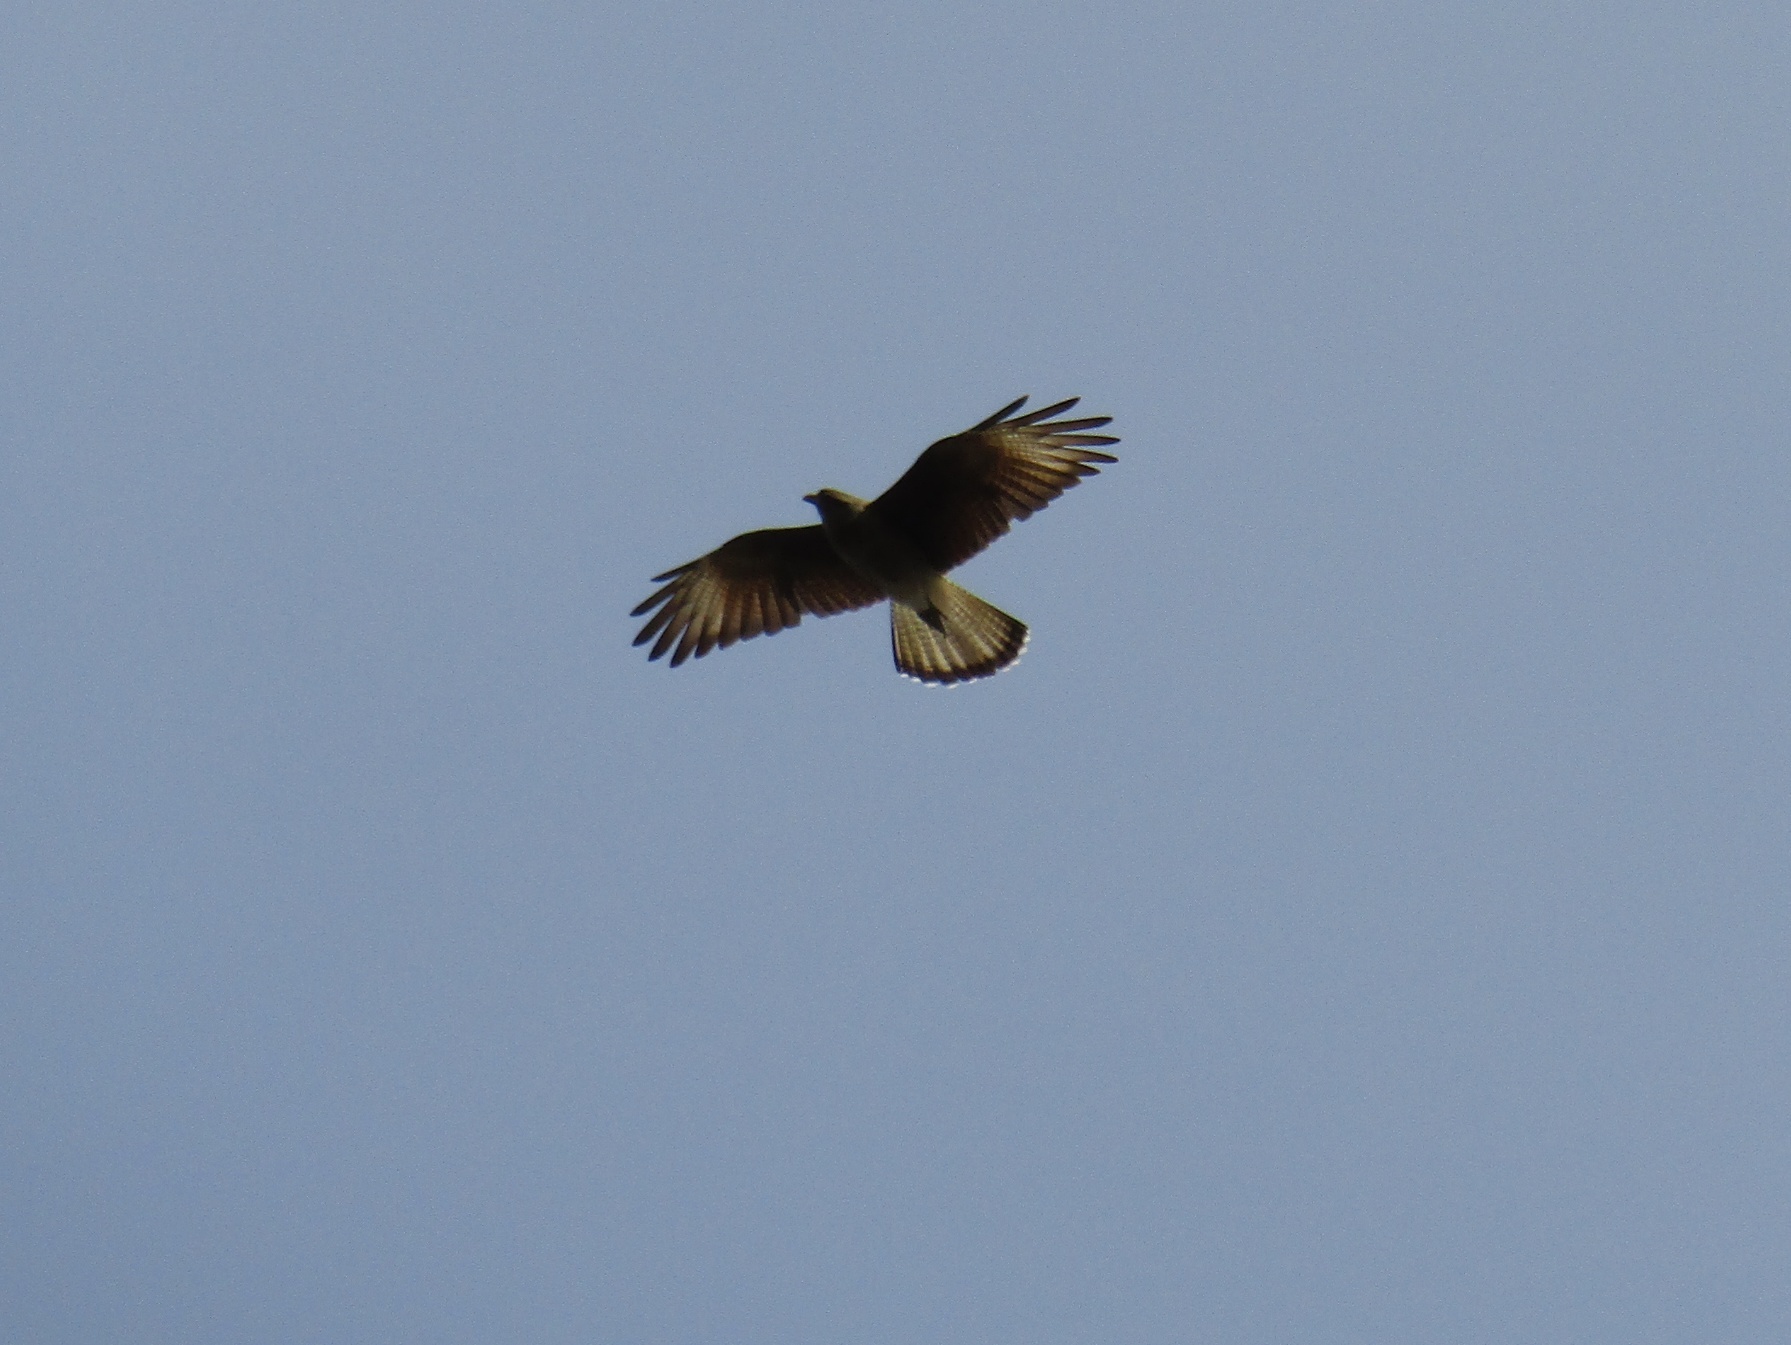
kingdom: Animalia
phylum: Chordata
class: Aves
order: Falconiformes
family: Falconidae
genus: Daptrius
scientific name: Daptrius
